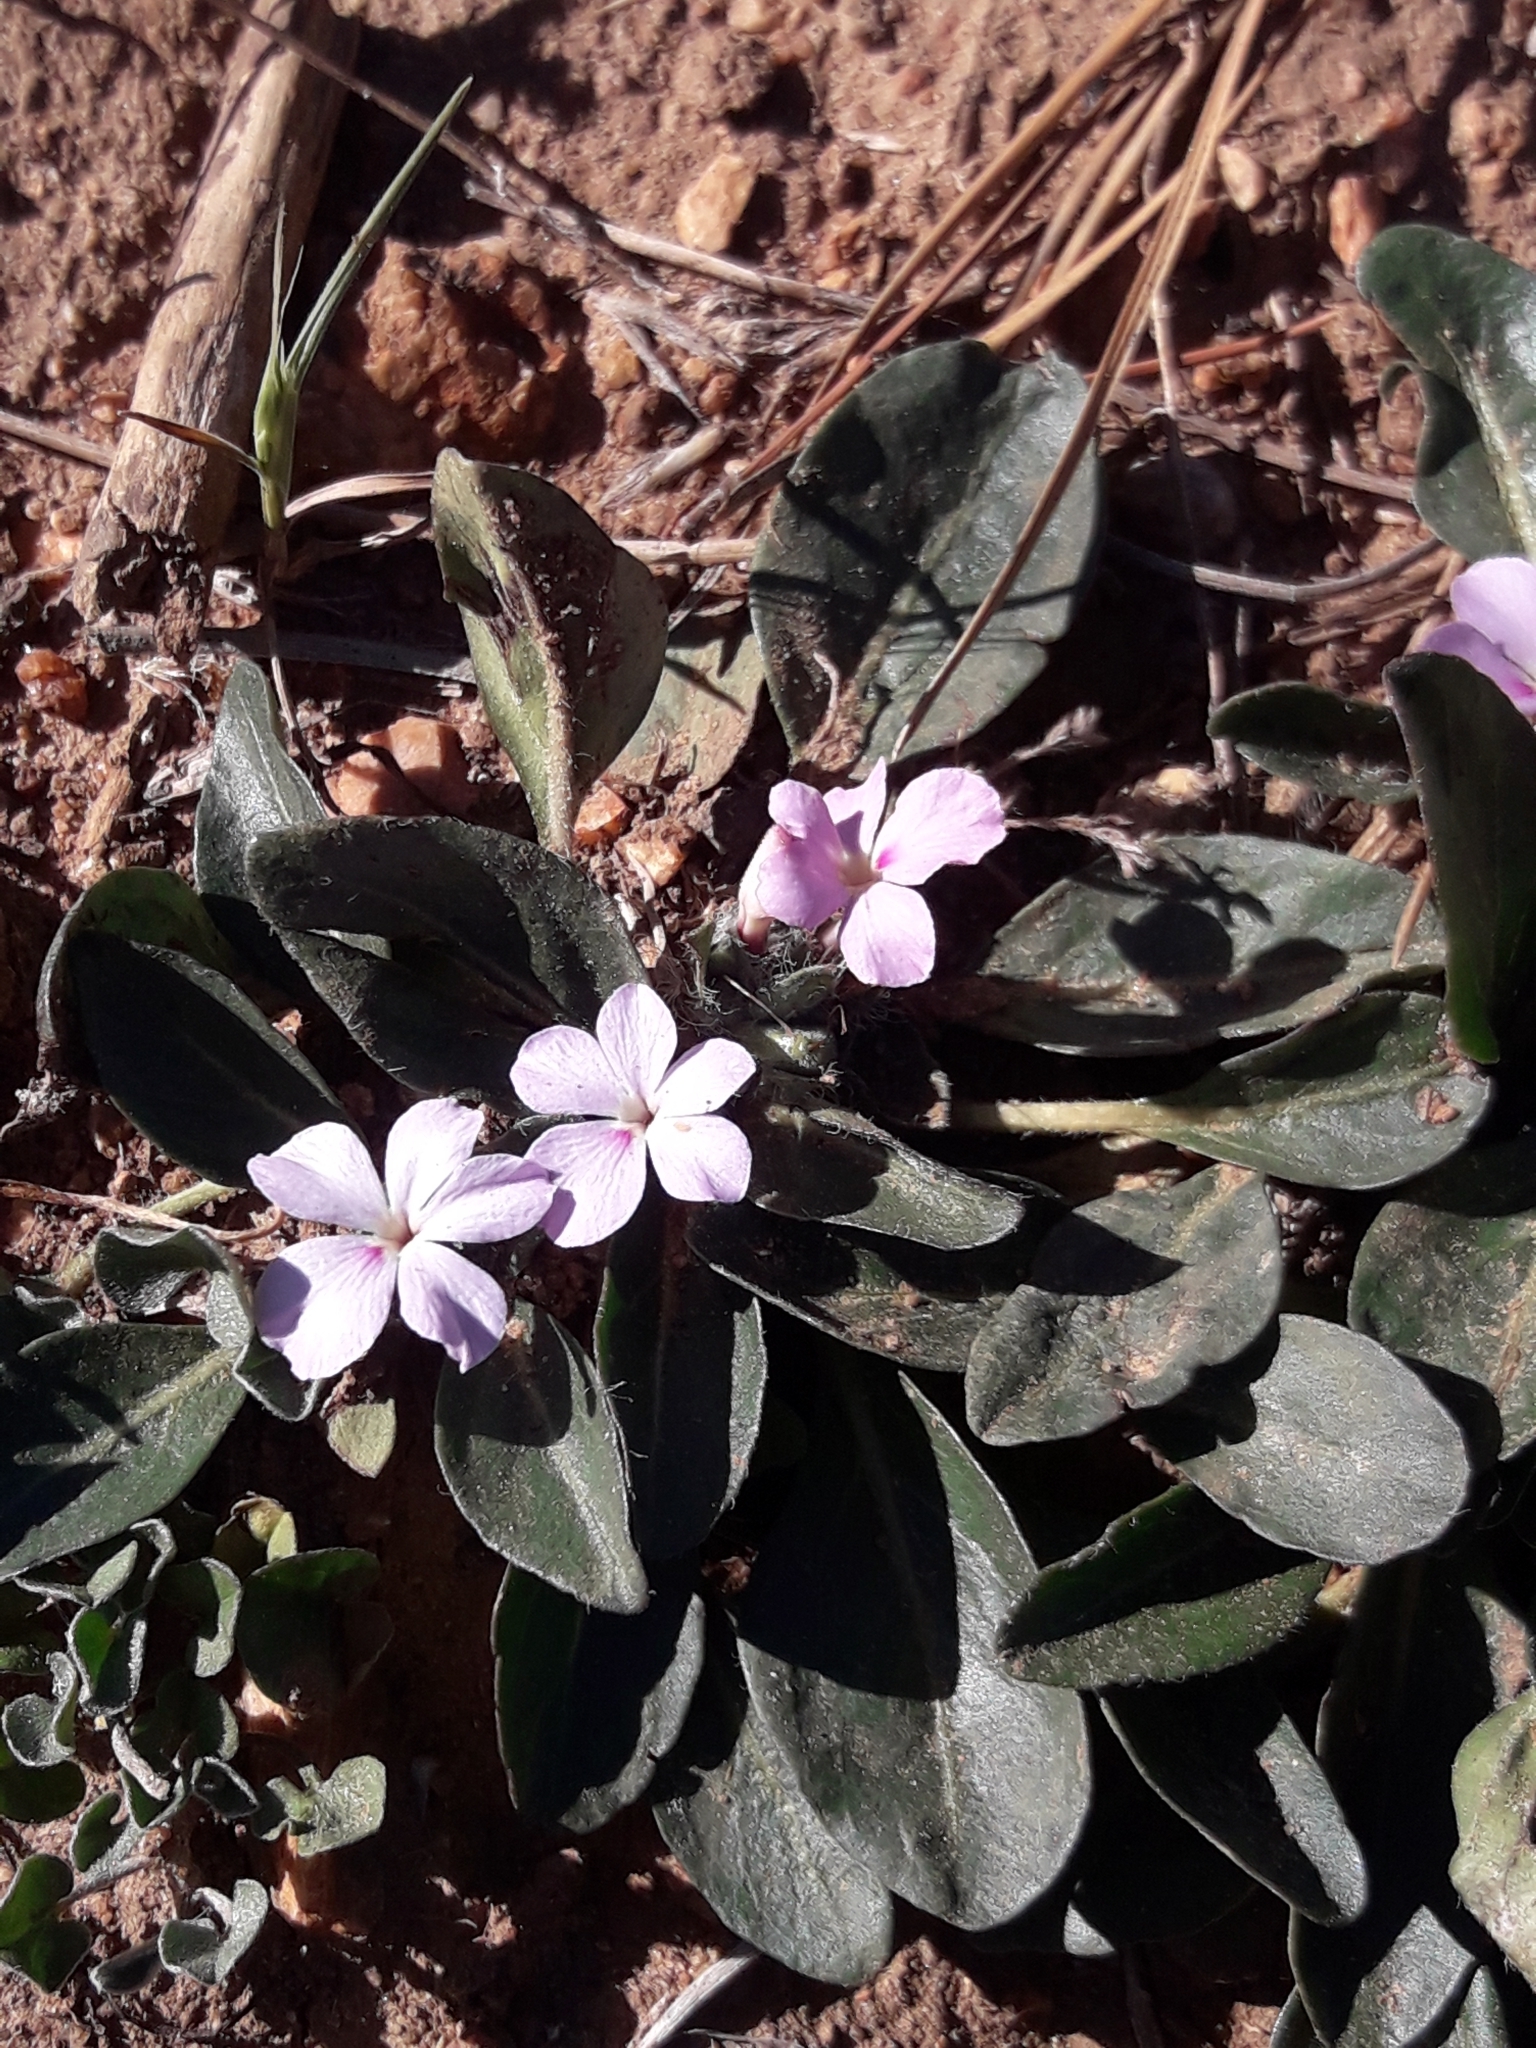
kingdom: Plantae
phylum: Tracheophyta
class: Magnoliopsida
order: Lamiales
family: Acanthaceae
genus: Stenandrium
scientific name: Stenandrium dulce
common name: Pinklet
